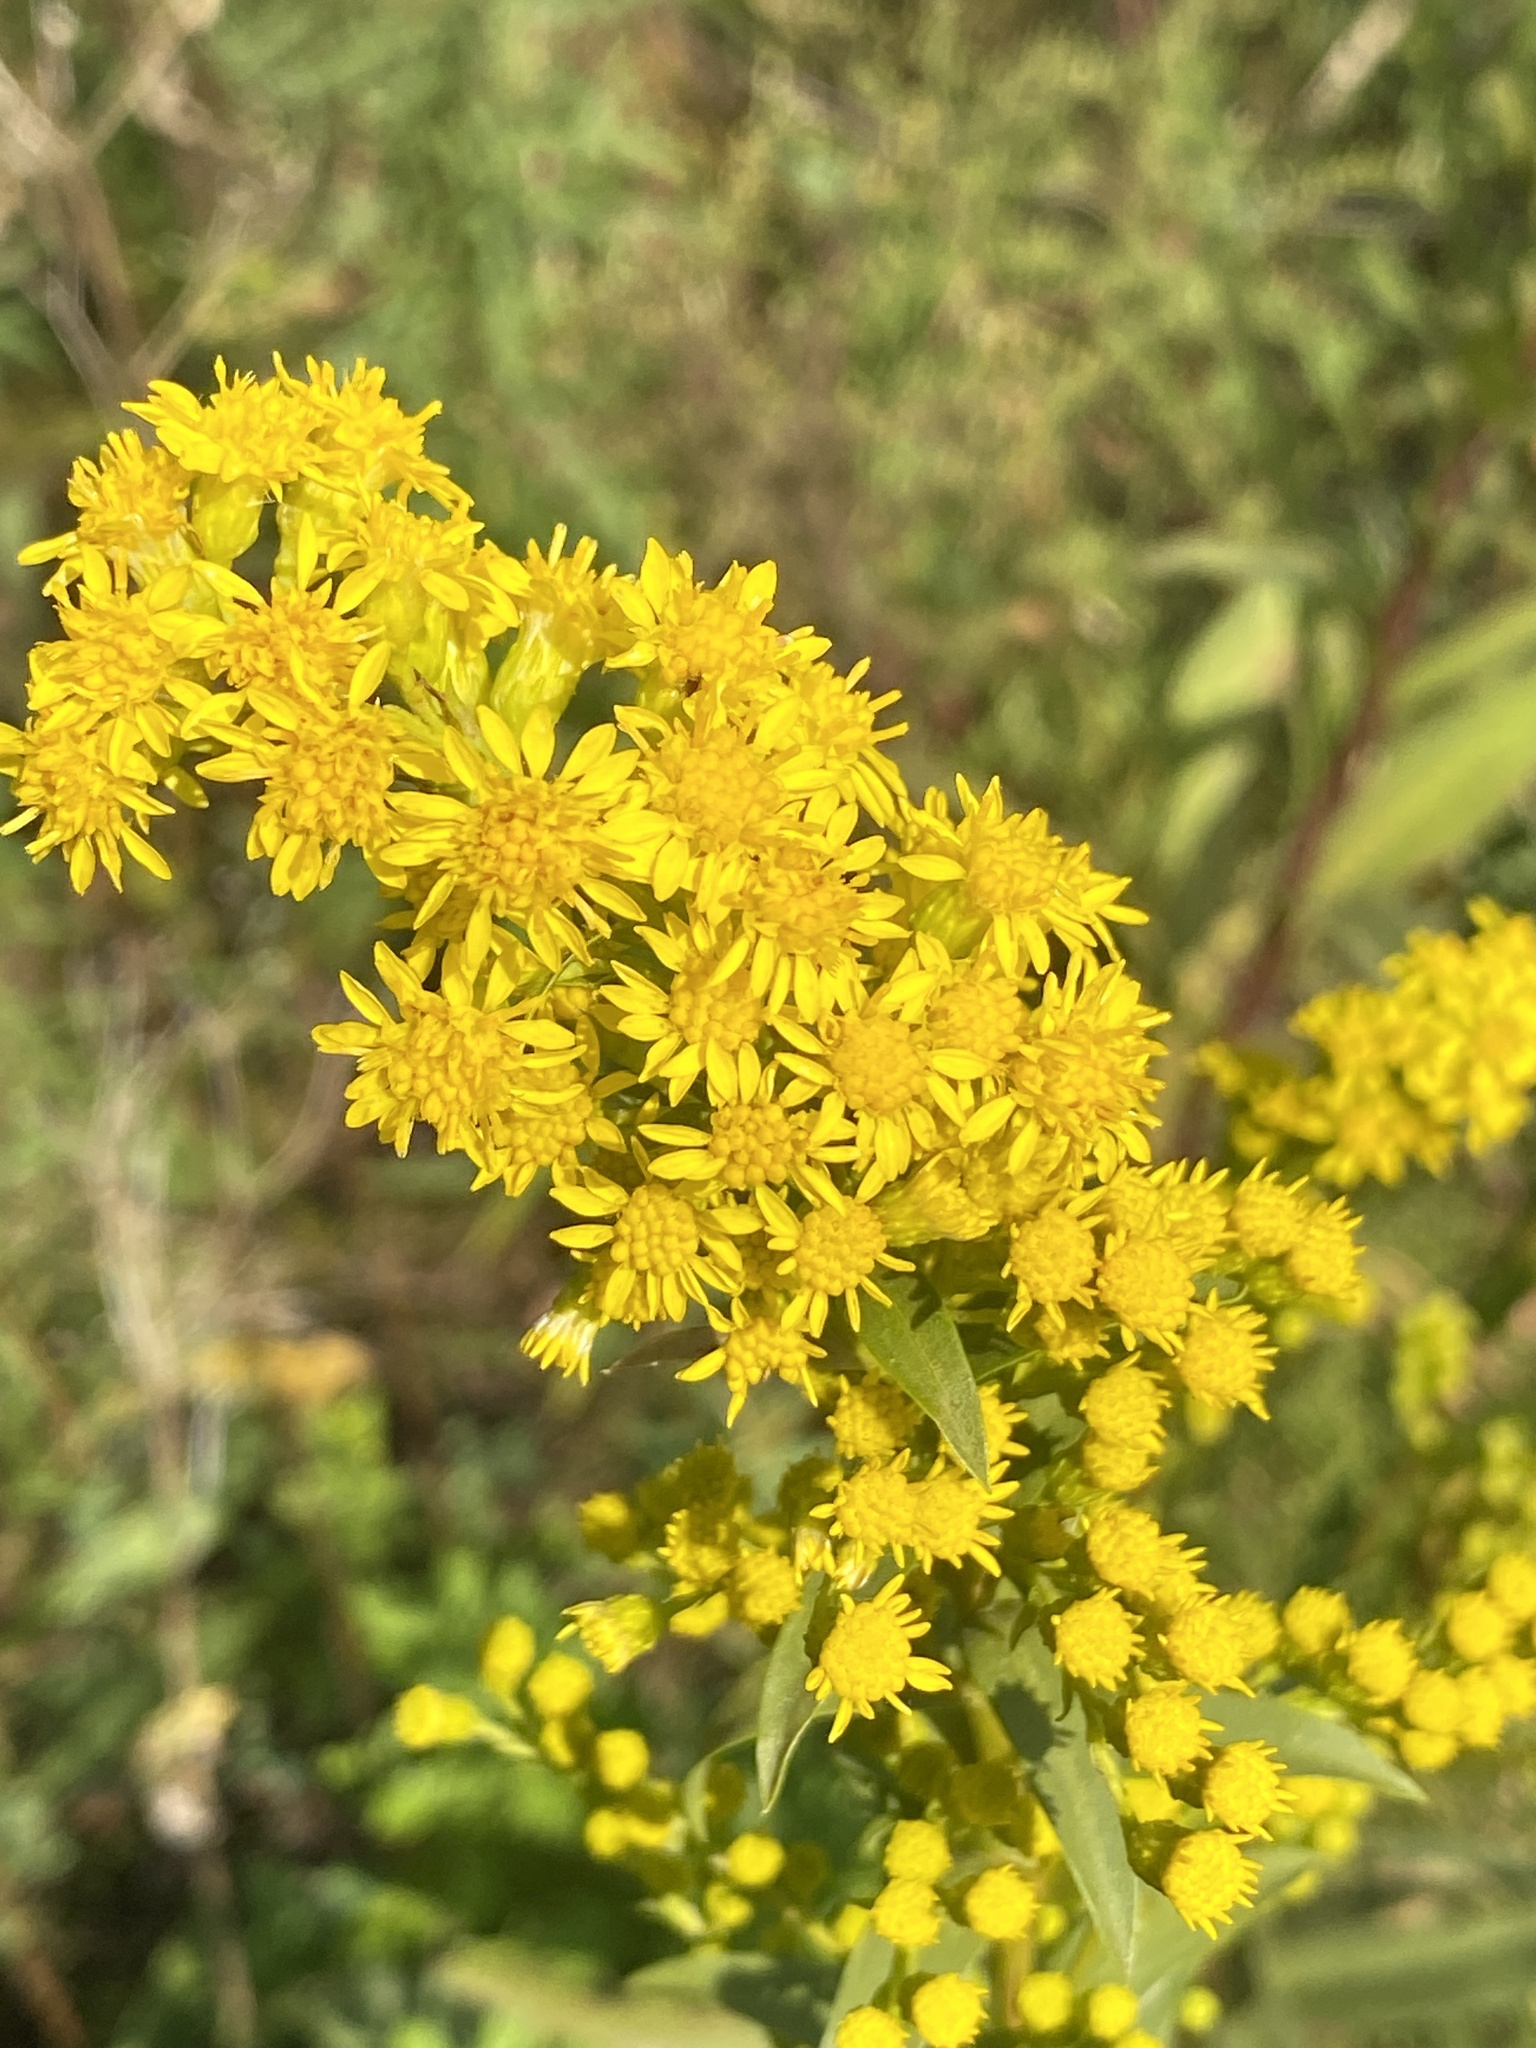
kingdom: Plantae
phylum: Tracheophyta
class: Magnoliopsida
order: Asterales
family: Asteraceae
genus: Solidago
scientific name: Solidago sempervirens
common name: Salt-marsh goldenrod
